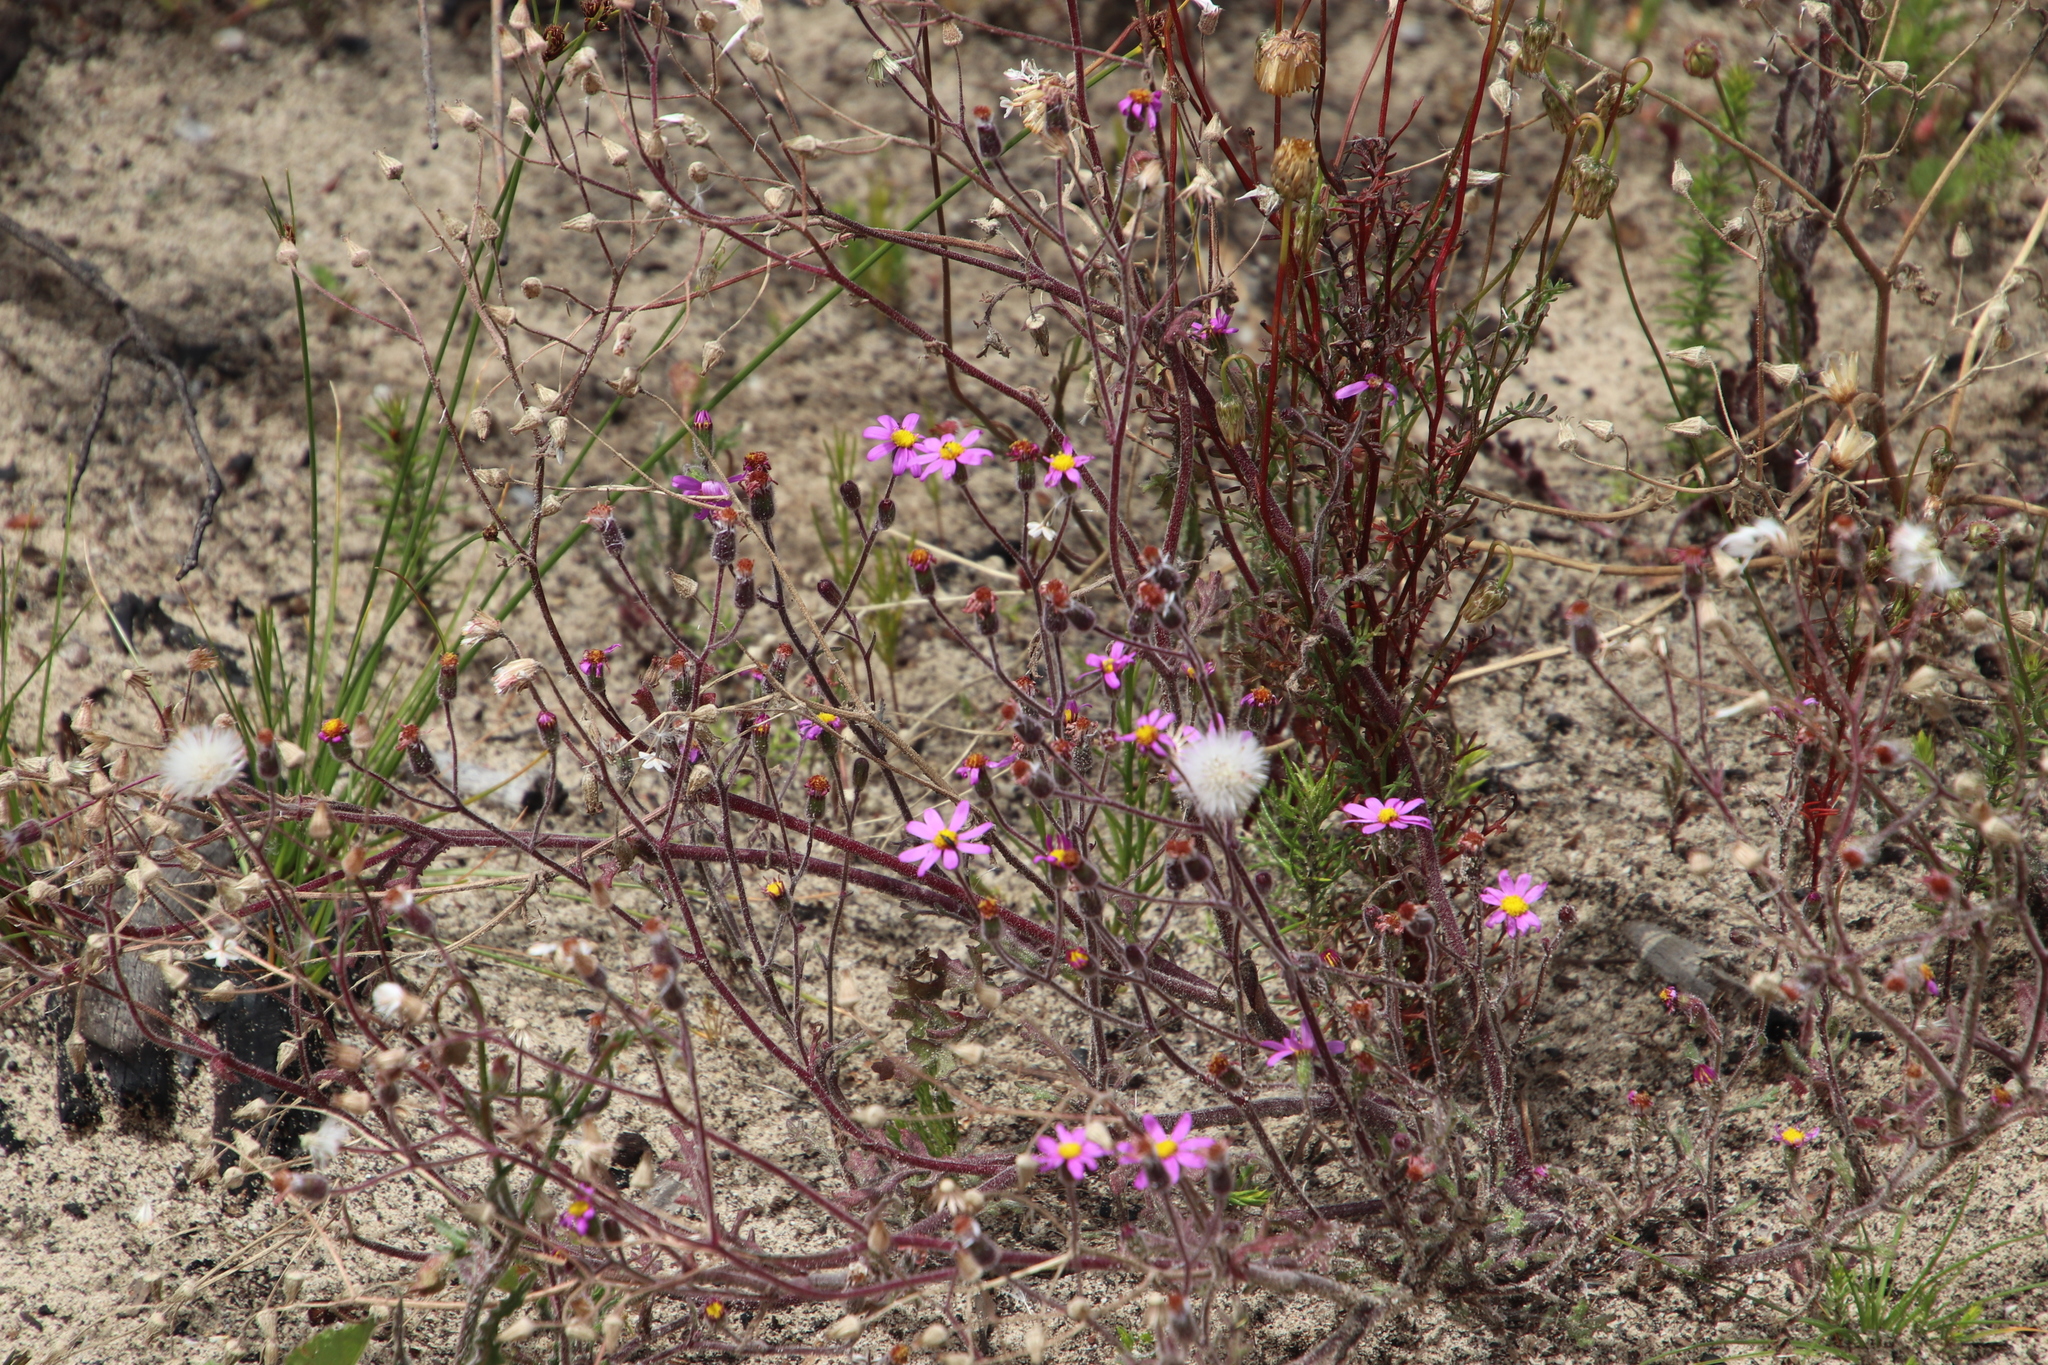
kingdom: Plantae
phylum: Tracheophyta
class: Magnoliopsida
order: Asterales
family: Asteraceae
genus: Senecio
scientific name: Senecio arenarius
